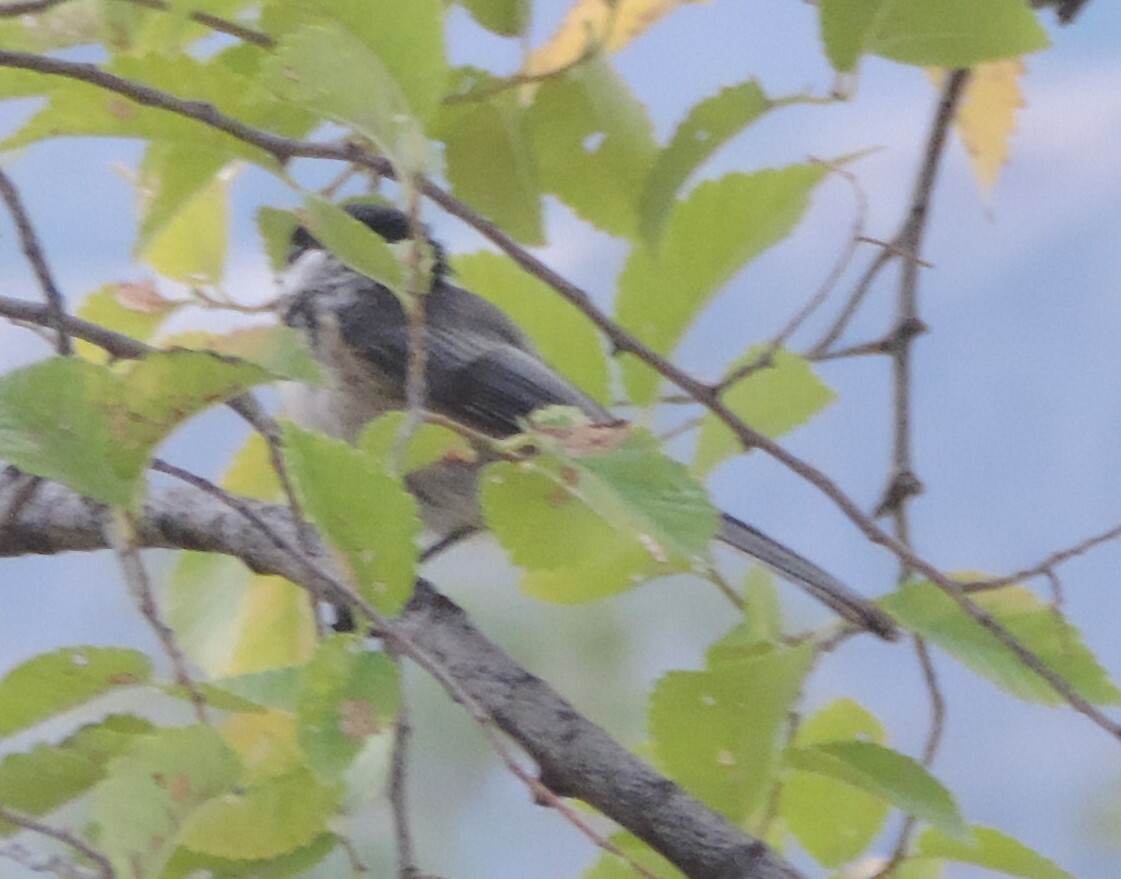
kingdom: Animalia
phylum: Chordata
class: Aves
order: Passeriformes
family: Paridae
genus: Poecile
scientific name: Poecile atricapillus
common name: Black-capped chickadee
